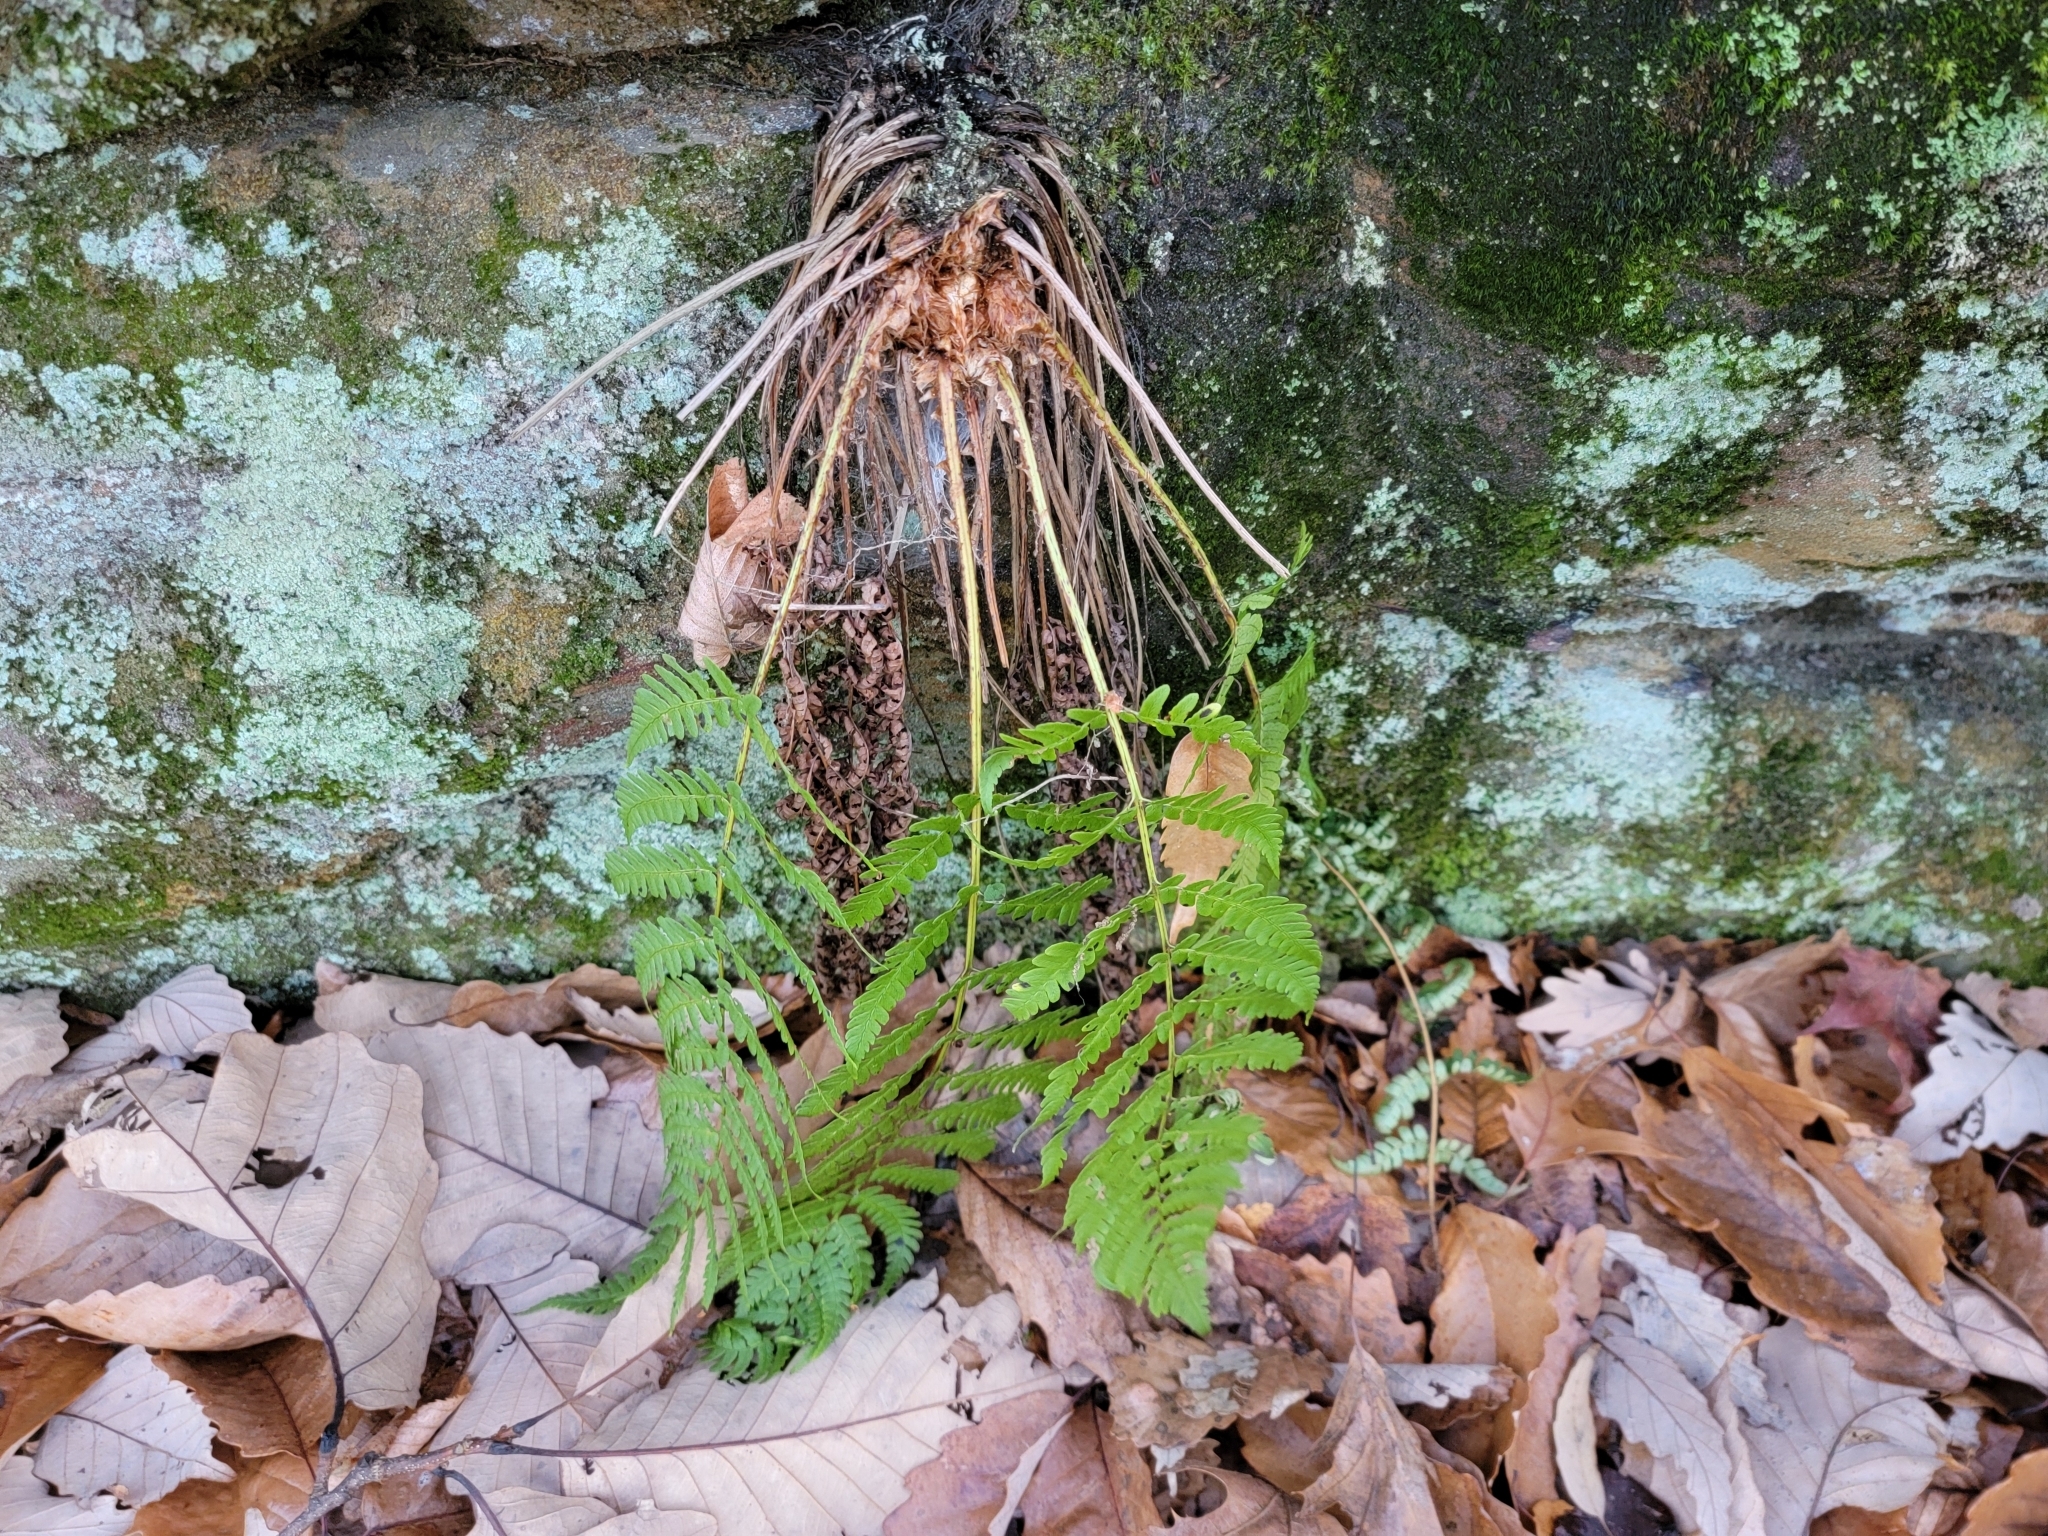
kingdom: Plantae
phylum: Tracheophyta
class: Polypodiopsida
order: Polypodiales
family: Dryopteridaceae
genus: Dryopteris
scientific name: Dryopteris marginalis
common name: Marginal wood fern
